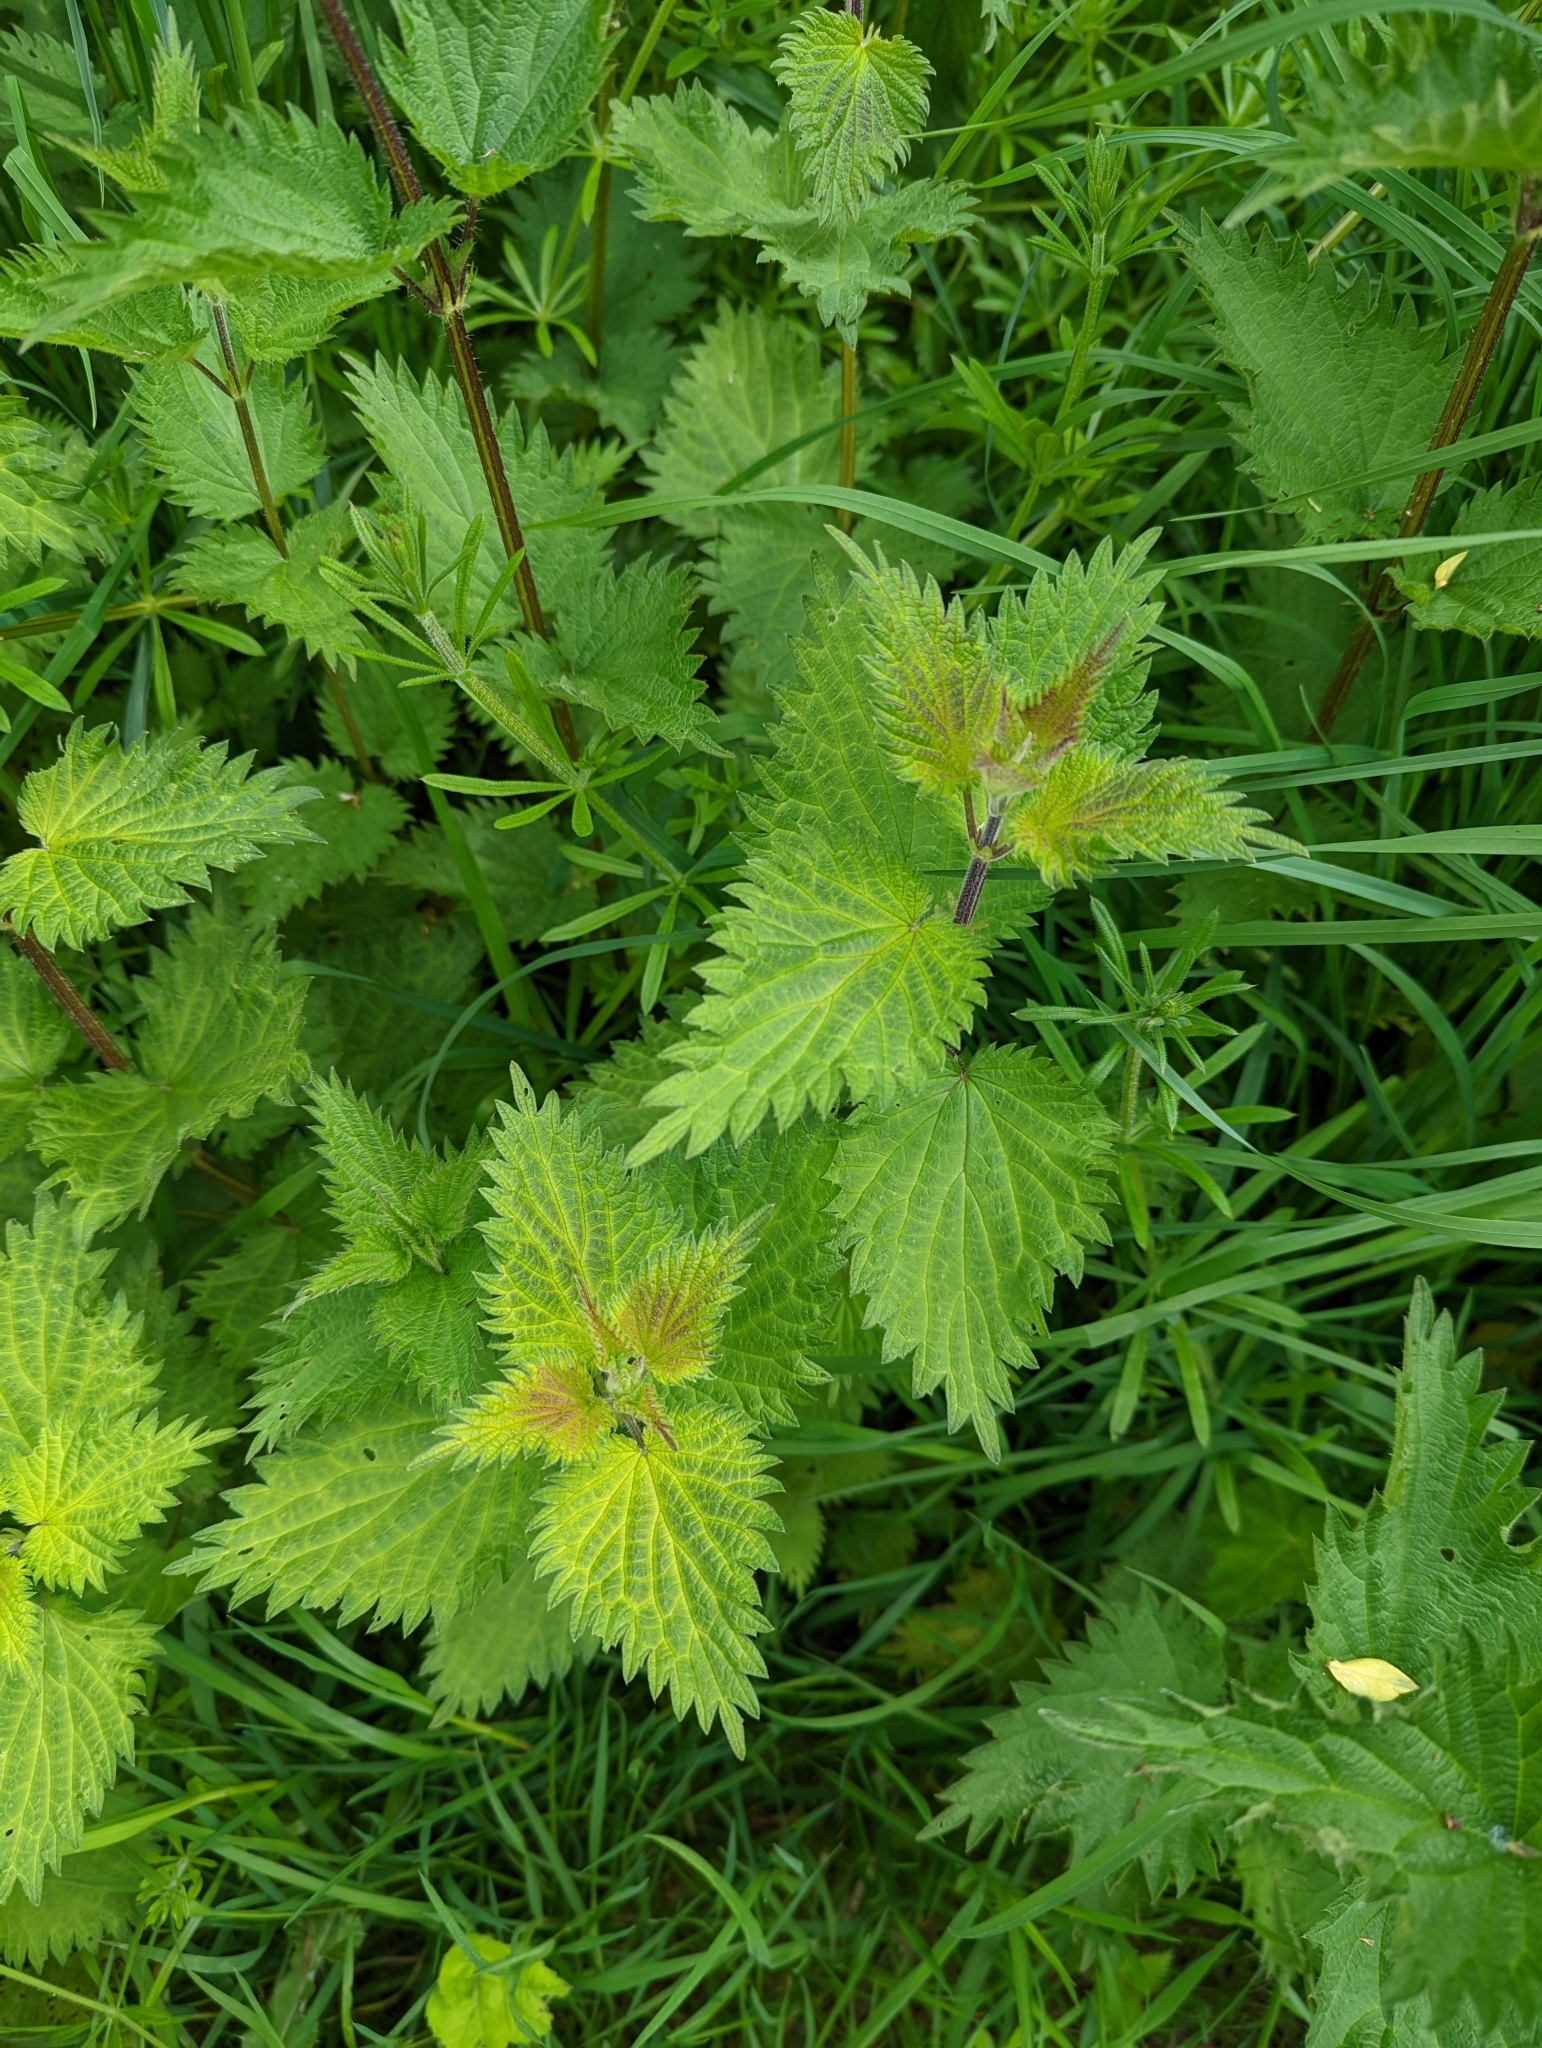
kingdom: Plantae
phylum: Tracheophyta
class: Magnoliopsida
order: Rosales
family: Urticaceae
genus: Urtica
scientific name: Urtica dioica
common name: Common nettle
